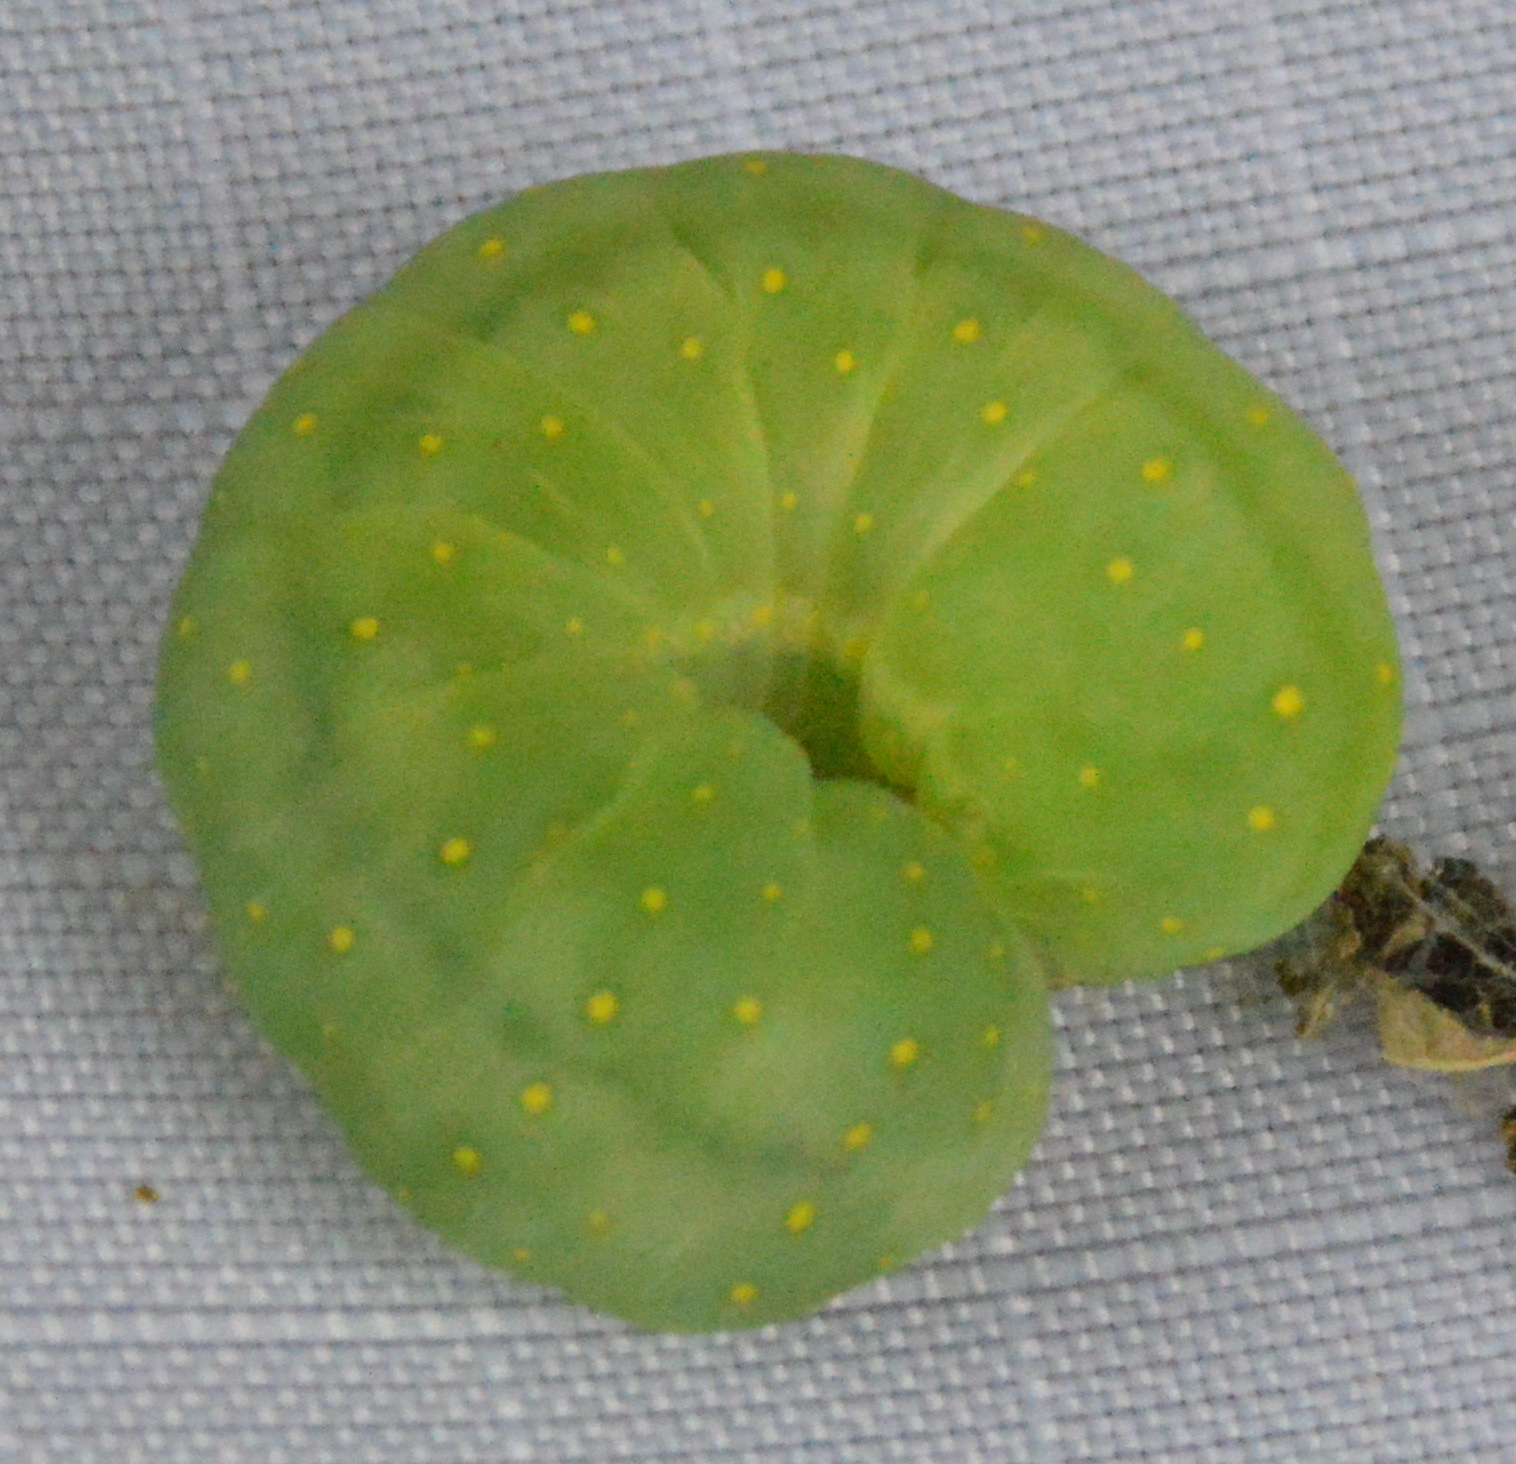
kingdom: Animalia
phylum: Arthropoda
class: Insecta
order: Lepidoptera
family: Noctuidae
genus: Phosphila
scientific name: Phosphila miselioides
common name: Spotted phosphila moth
